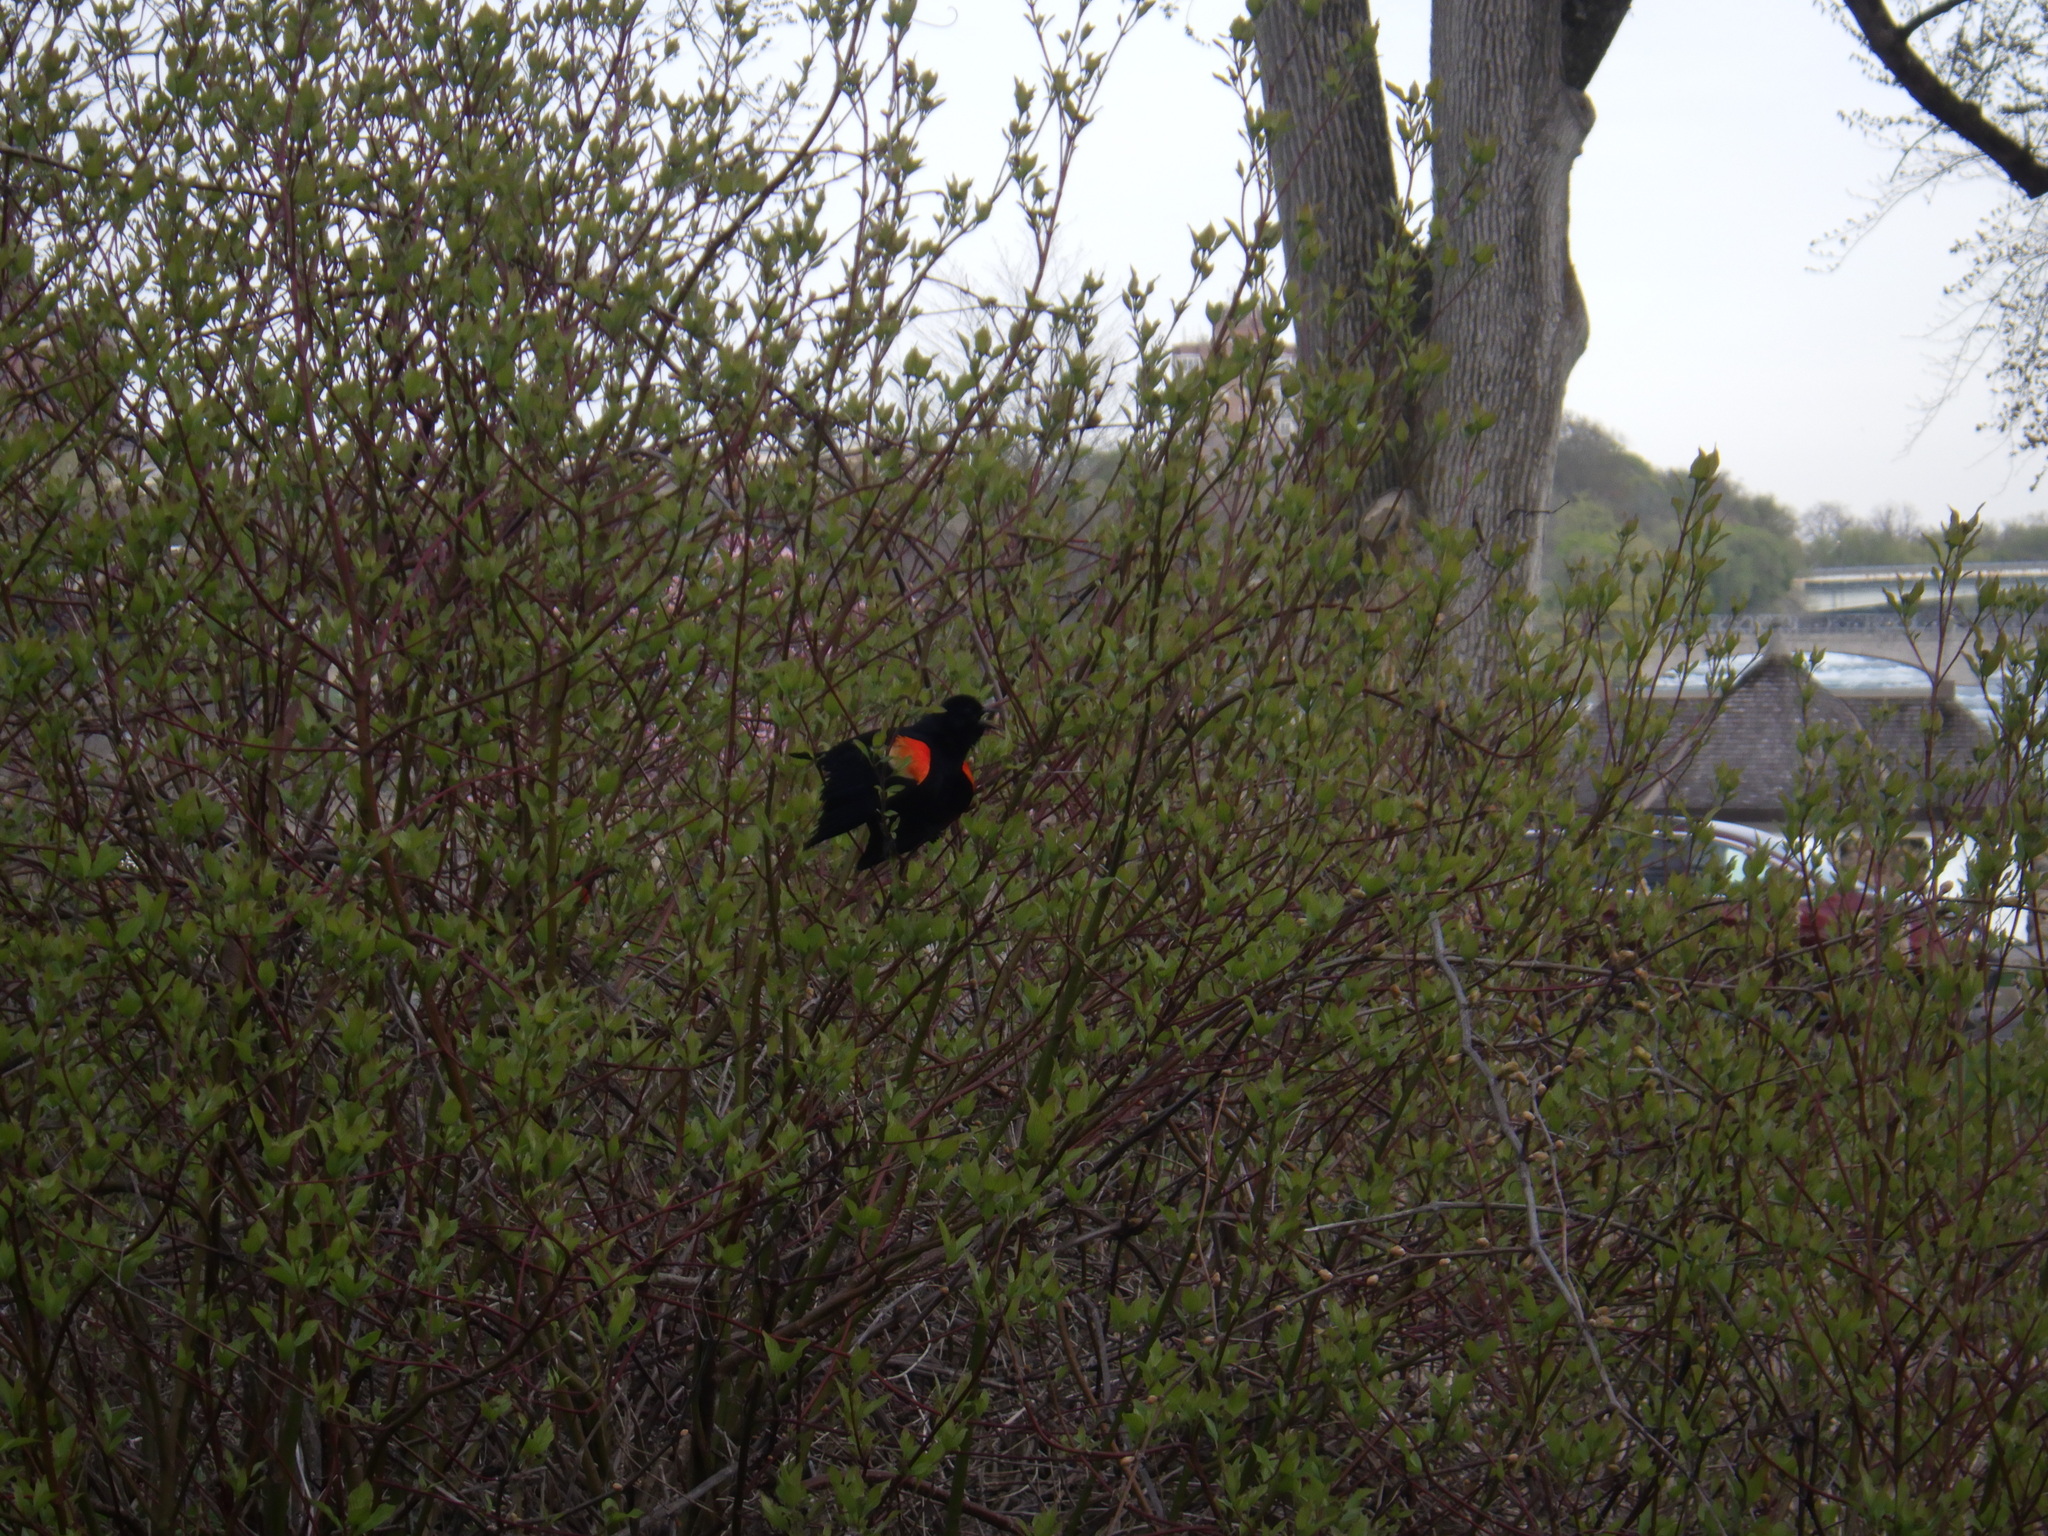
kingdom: Animalia
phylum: Chordata
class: Aves
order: Passeriformes
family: Icteridae
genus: Agelaius
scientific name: Agelaius phoeniceus
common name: Red-winged blackbird
